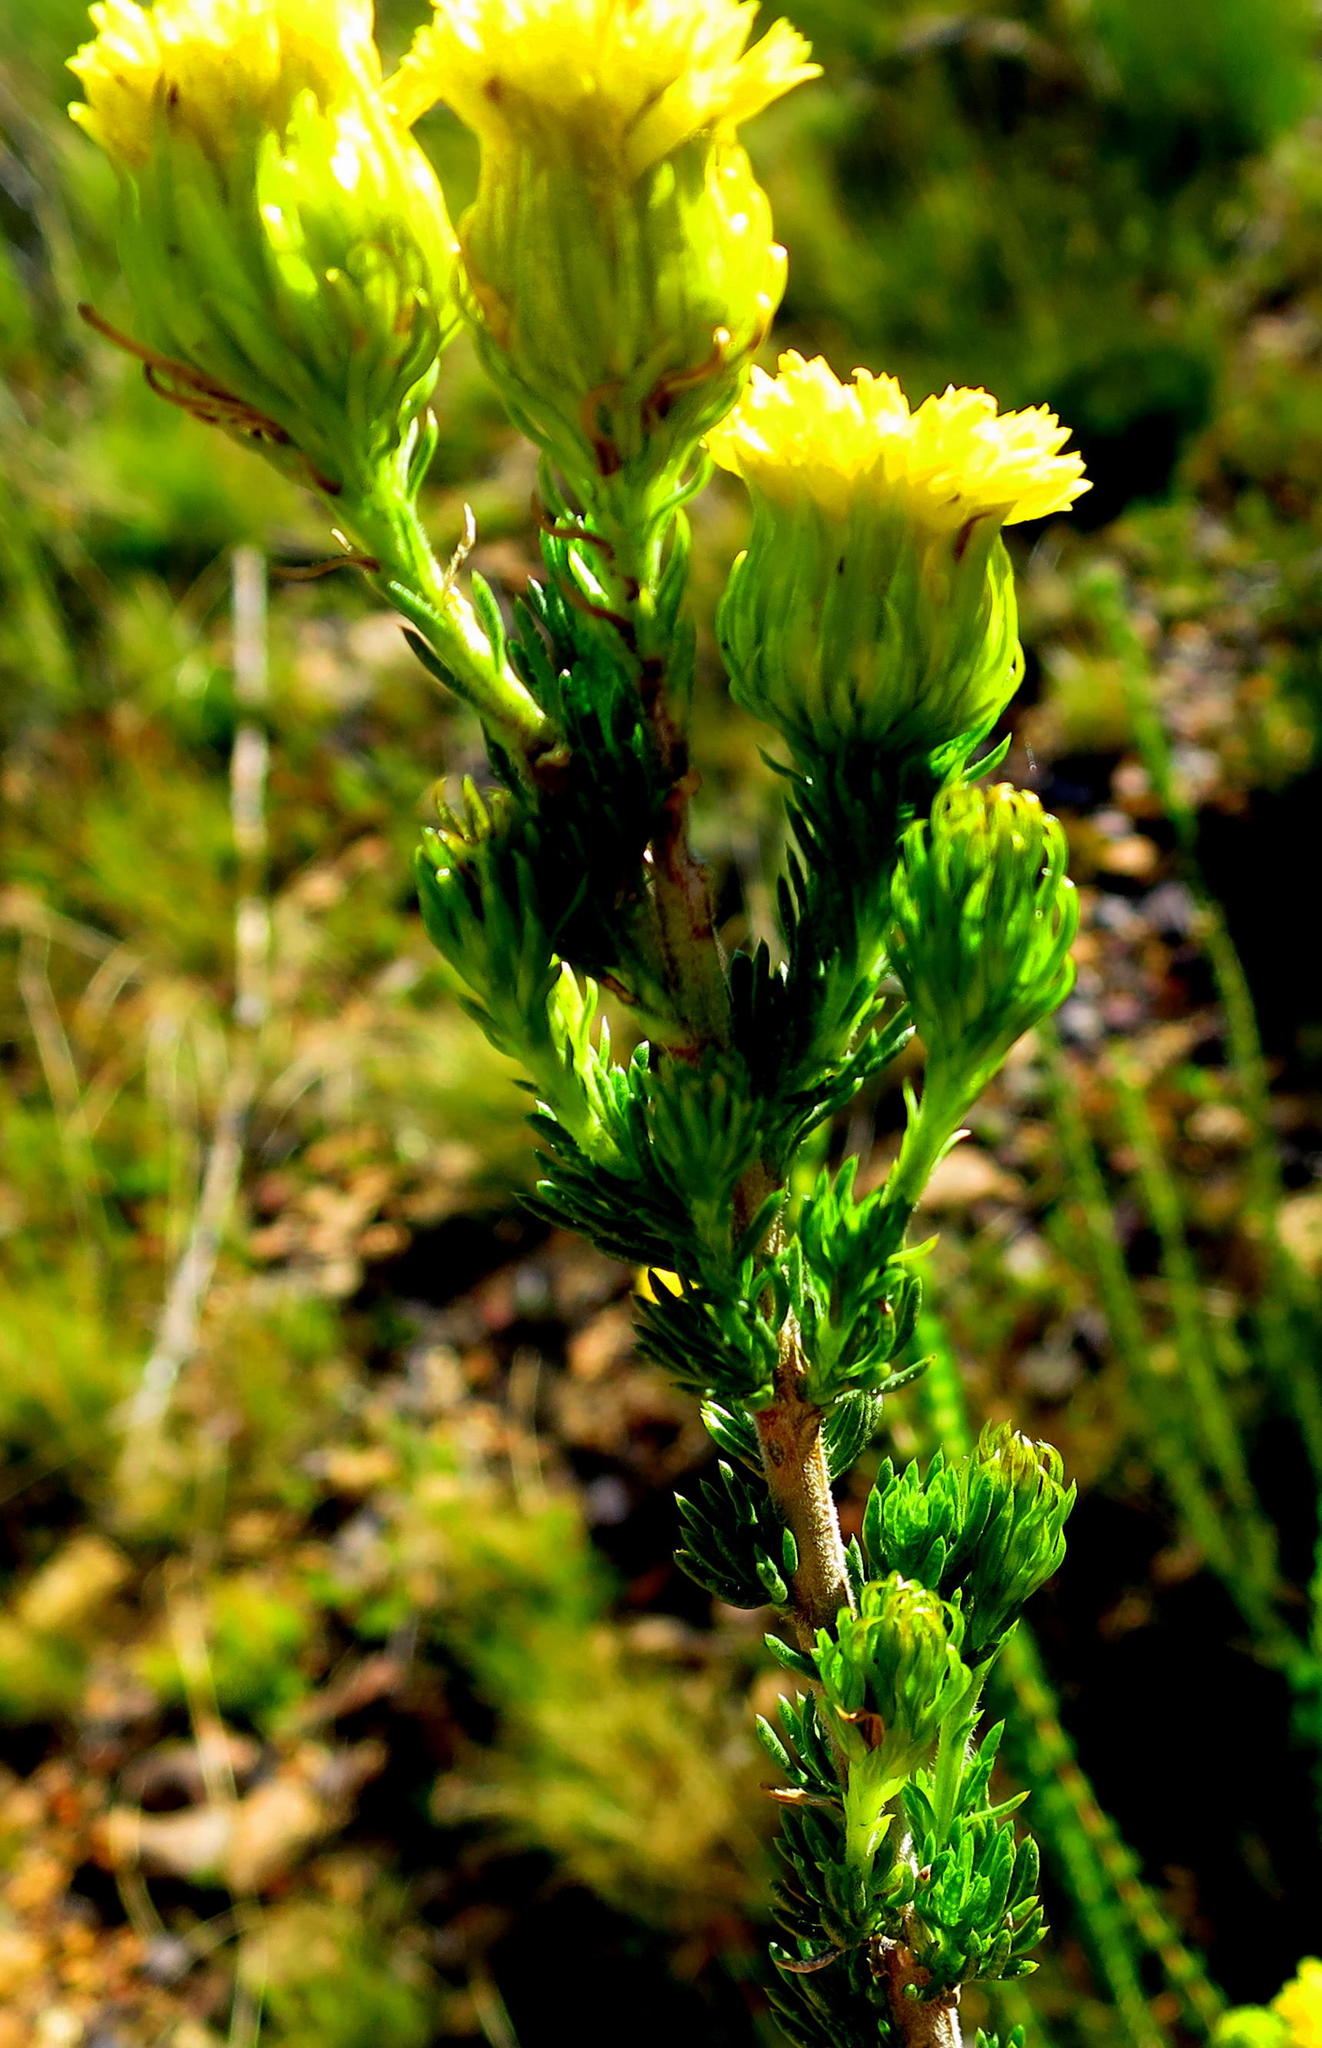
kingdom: Plantae
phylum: Tracheophyta
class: Magnoliopsida
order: Asterales
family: Asteraceae
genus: Pteronia
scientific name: Pteronia camphorata
